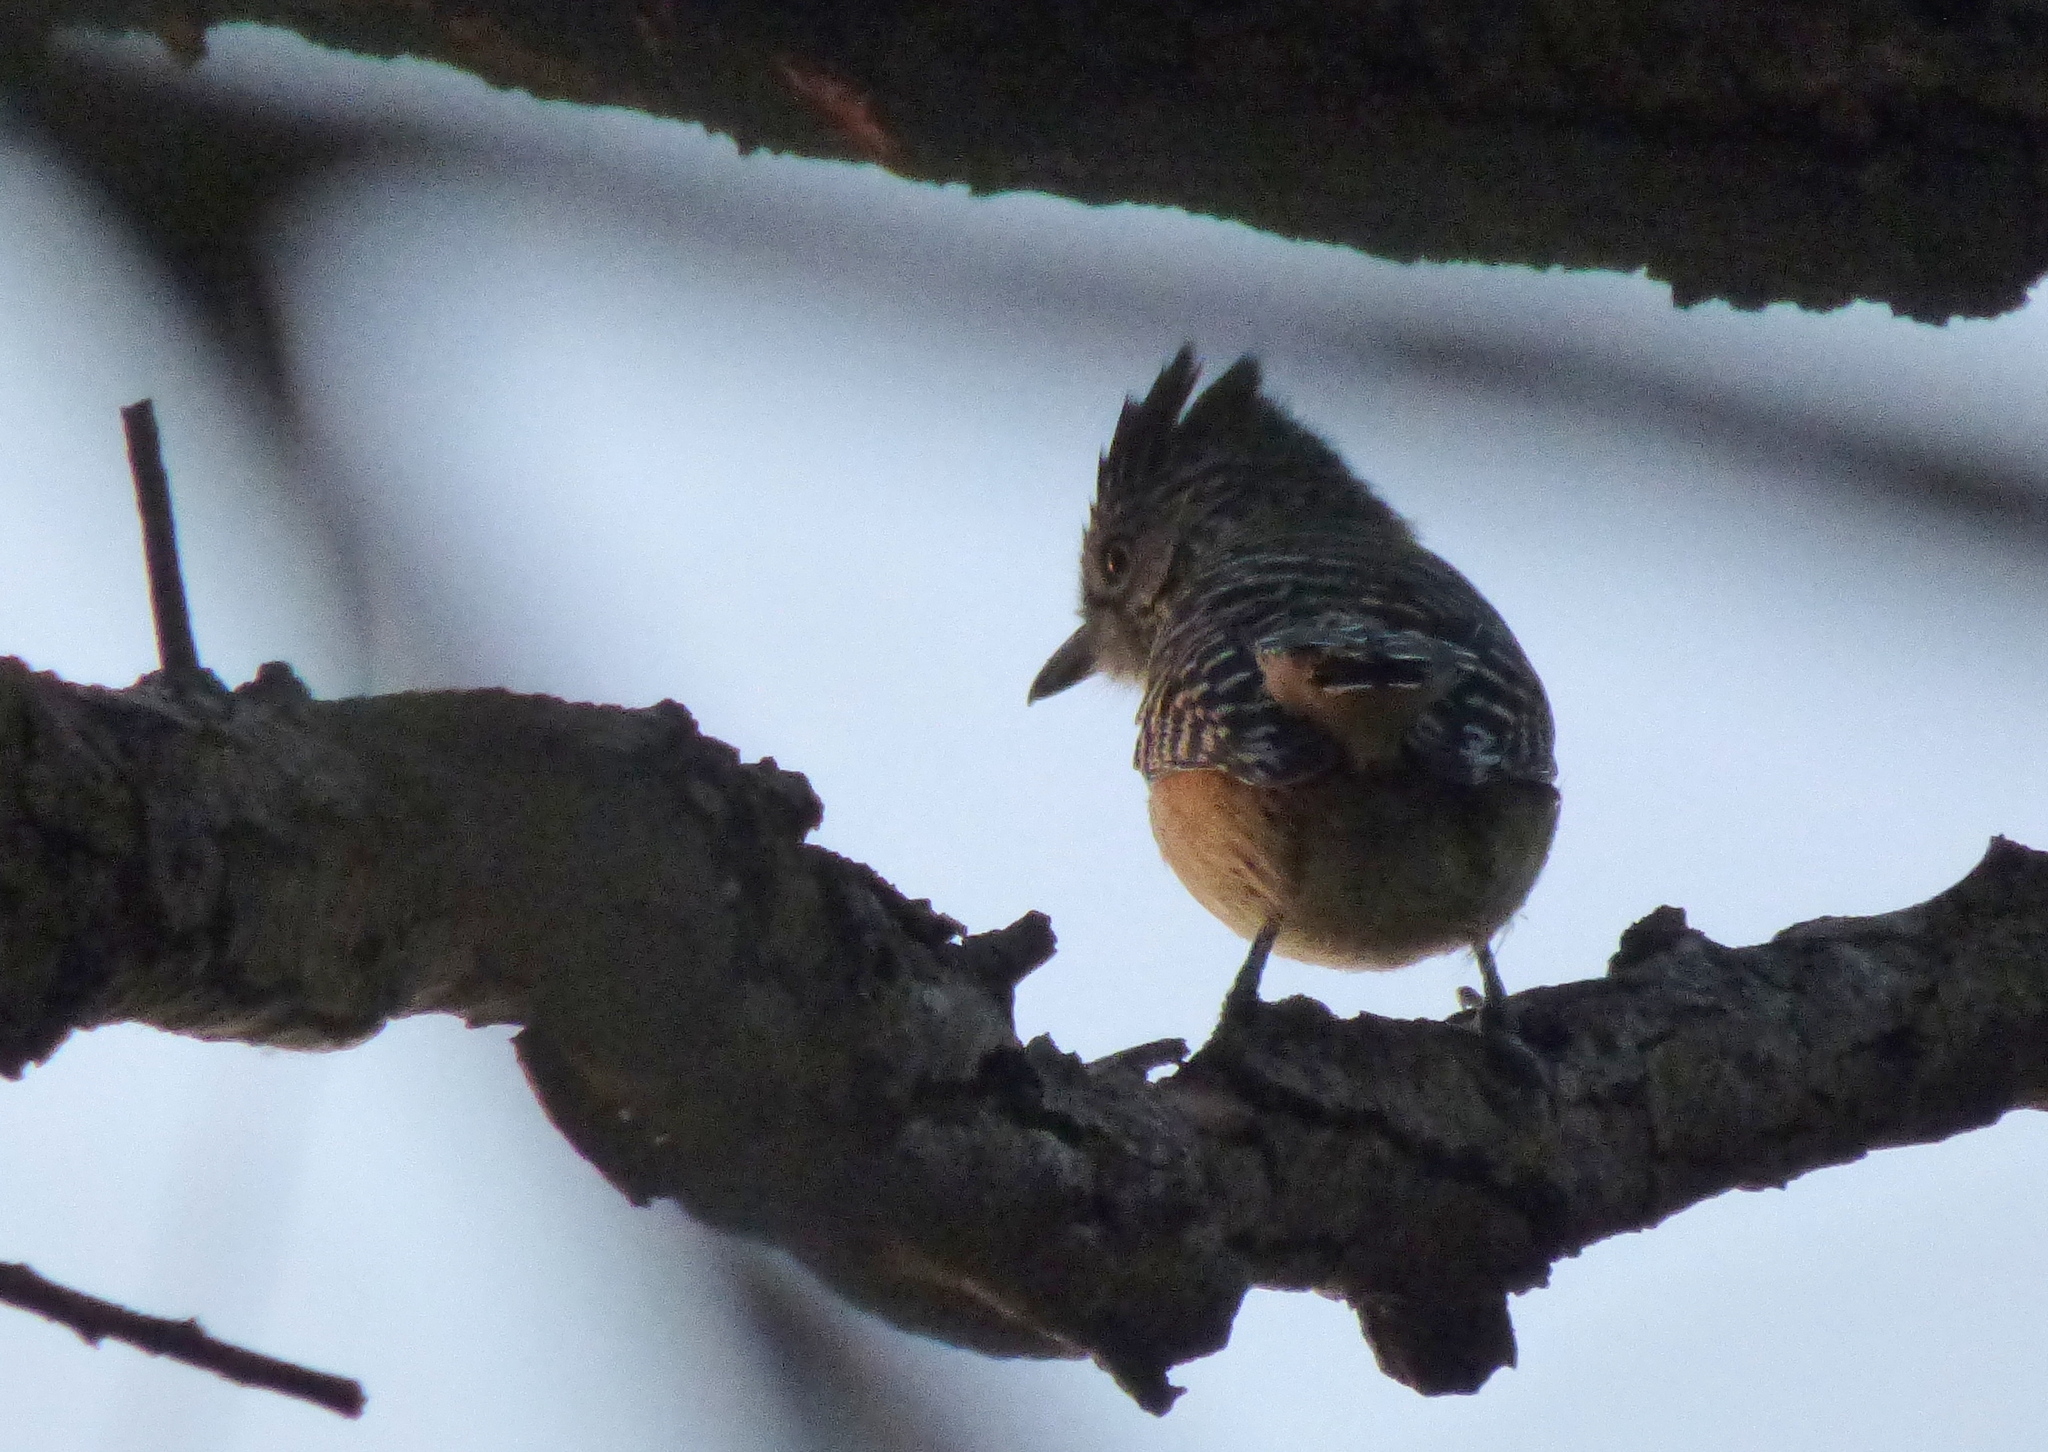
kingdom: Animalia
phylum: Chordata
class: Aves
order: Passeriformes
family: Thamnophilidae
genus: Thamnophilus
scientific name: Thamnophilus doliatus
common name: Barred antshrike
